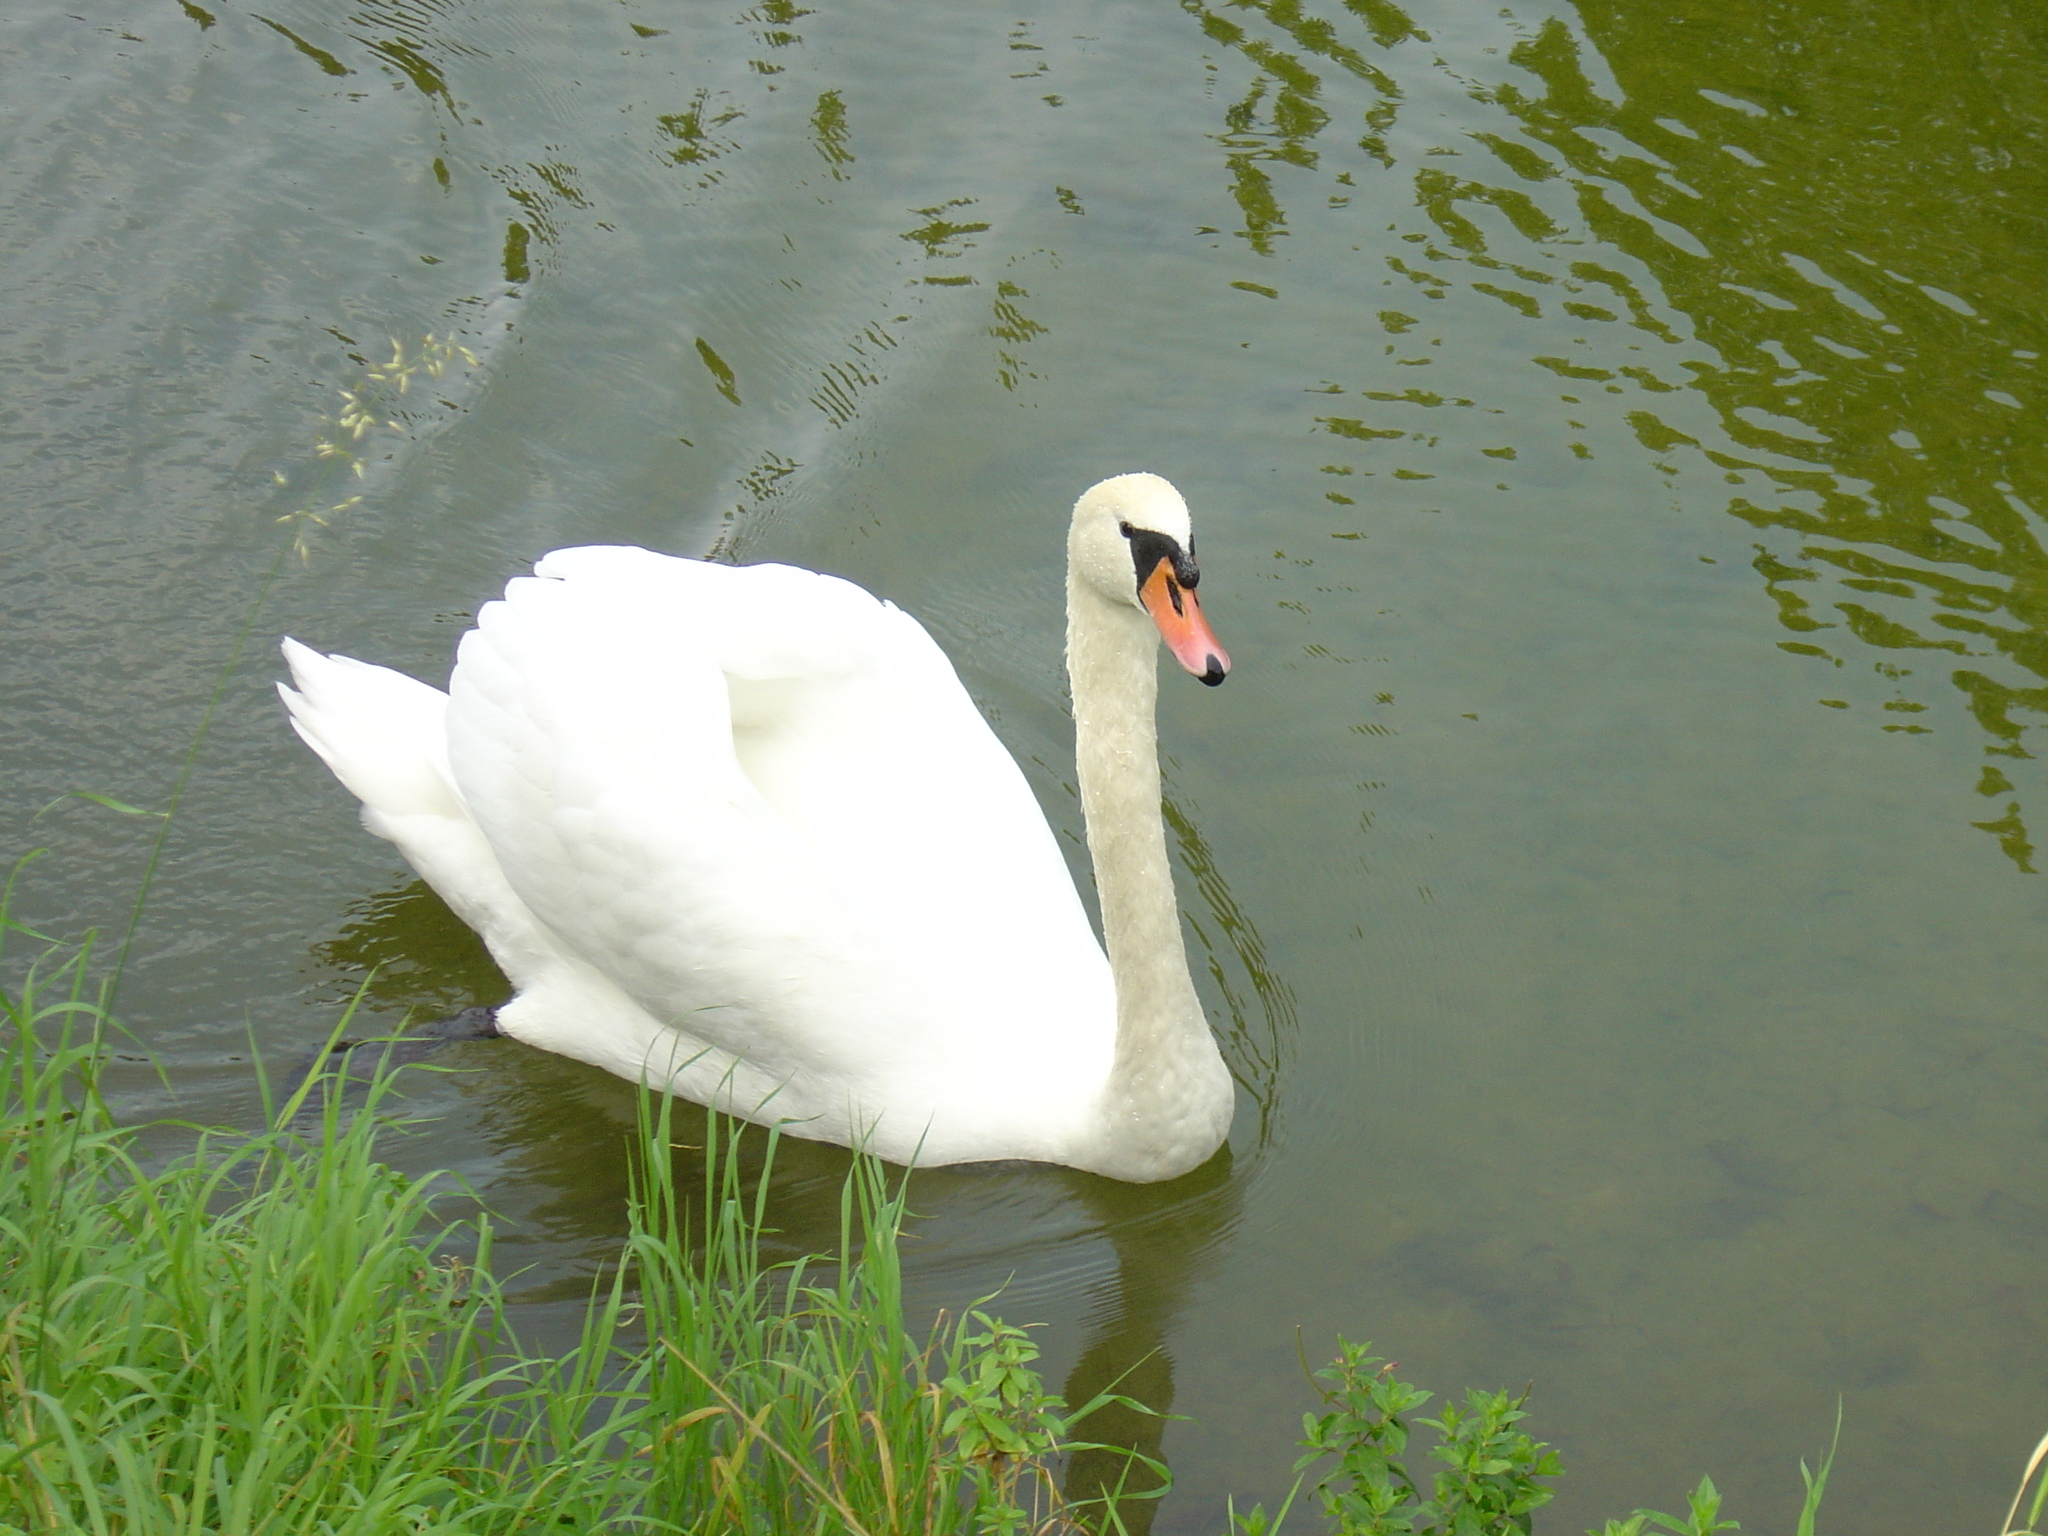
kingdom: Animalia
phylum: Chordata
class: Aves
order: Anseriformes
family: Anatidae
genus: Cygnus
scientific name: Cygnus olor
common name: Mute swan
